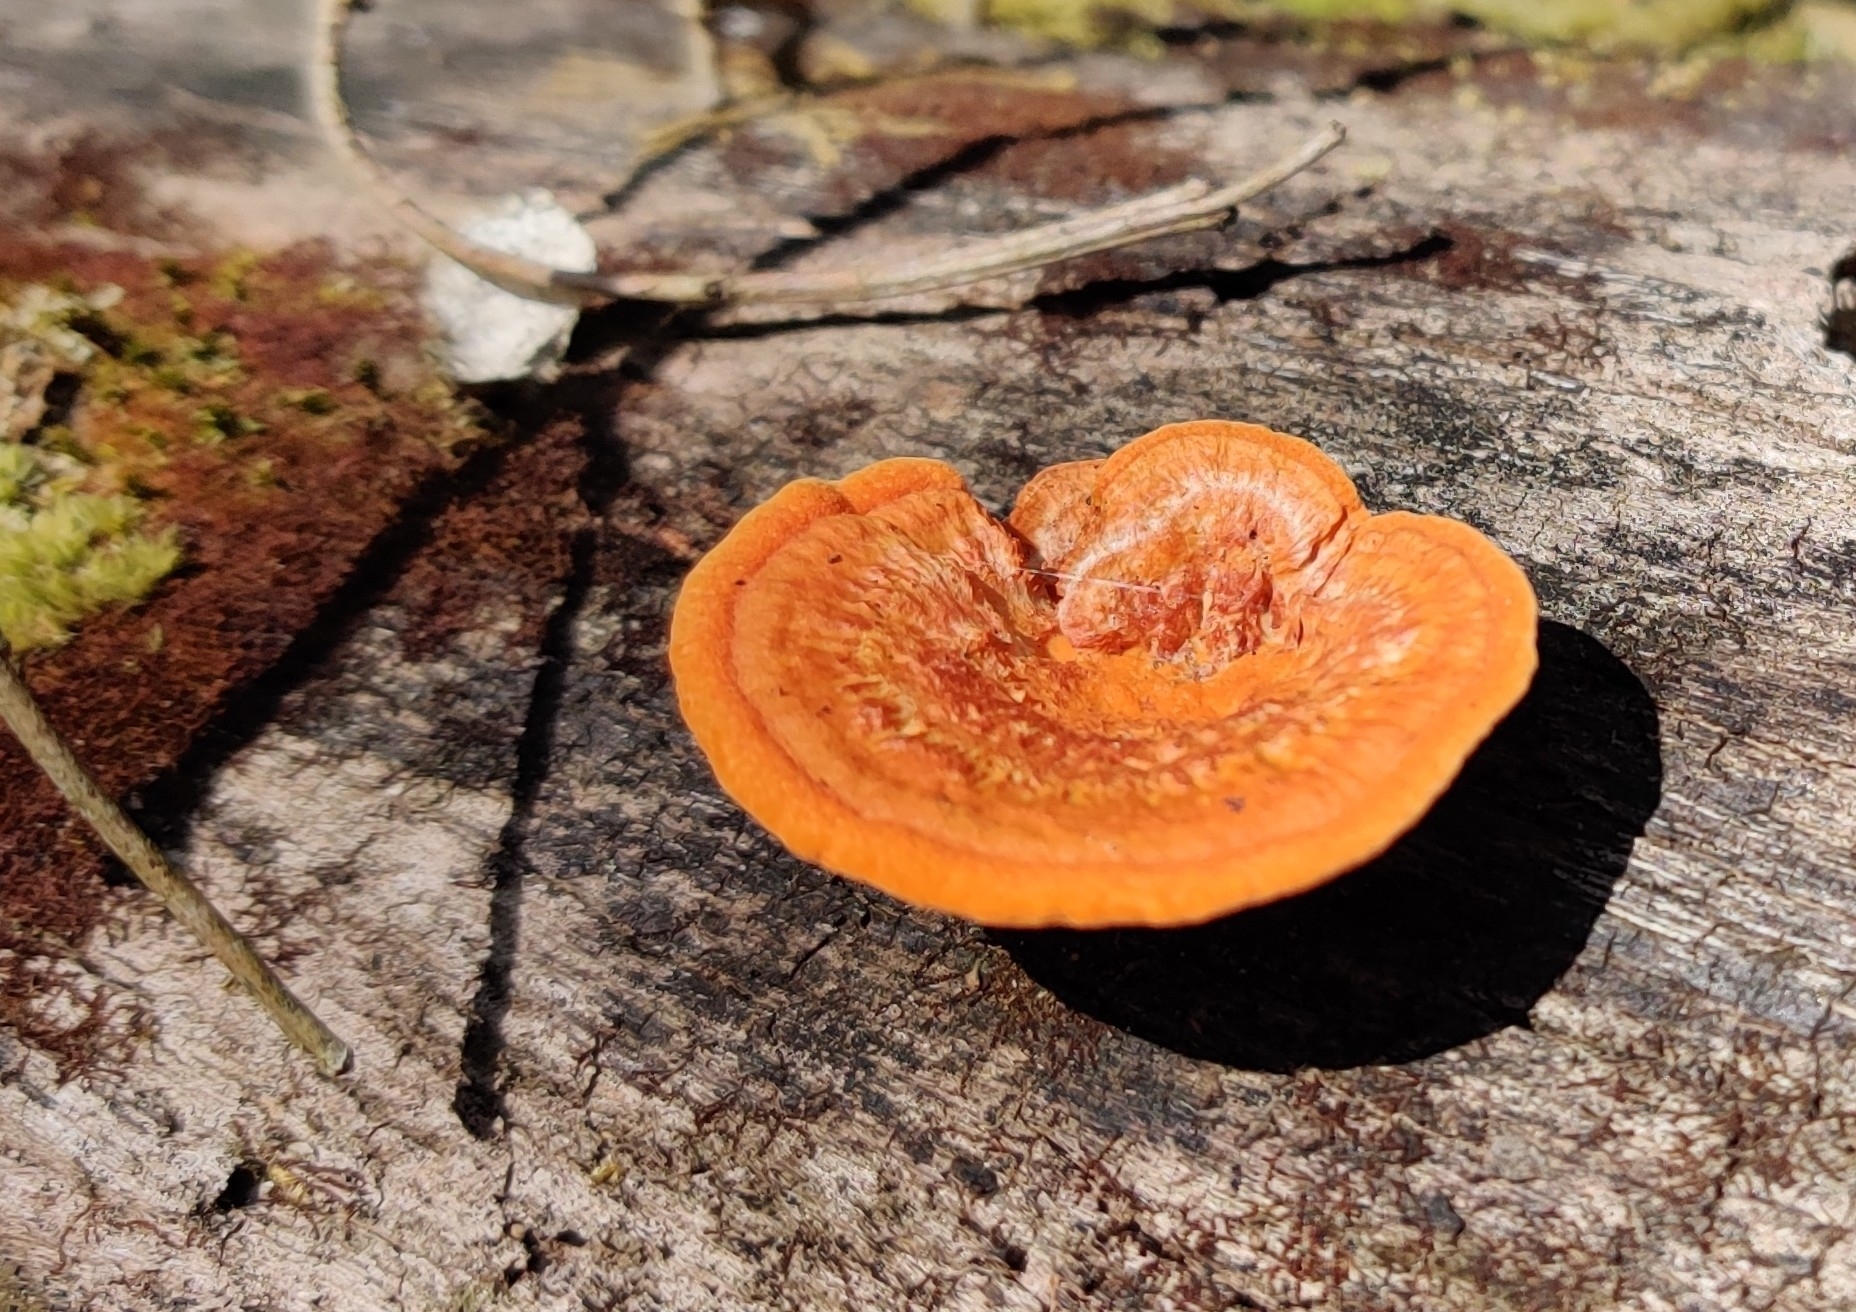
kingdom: Fungi
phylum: Basidiomycota
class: Agaricomycetes
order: Polyporales
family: Polyporaceae
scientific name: Polyporaceae
